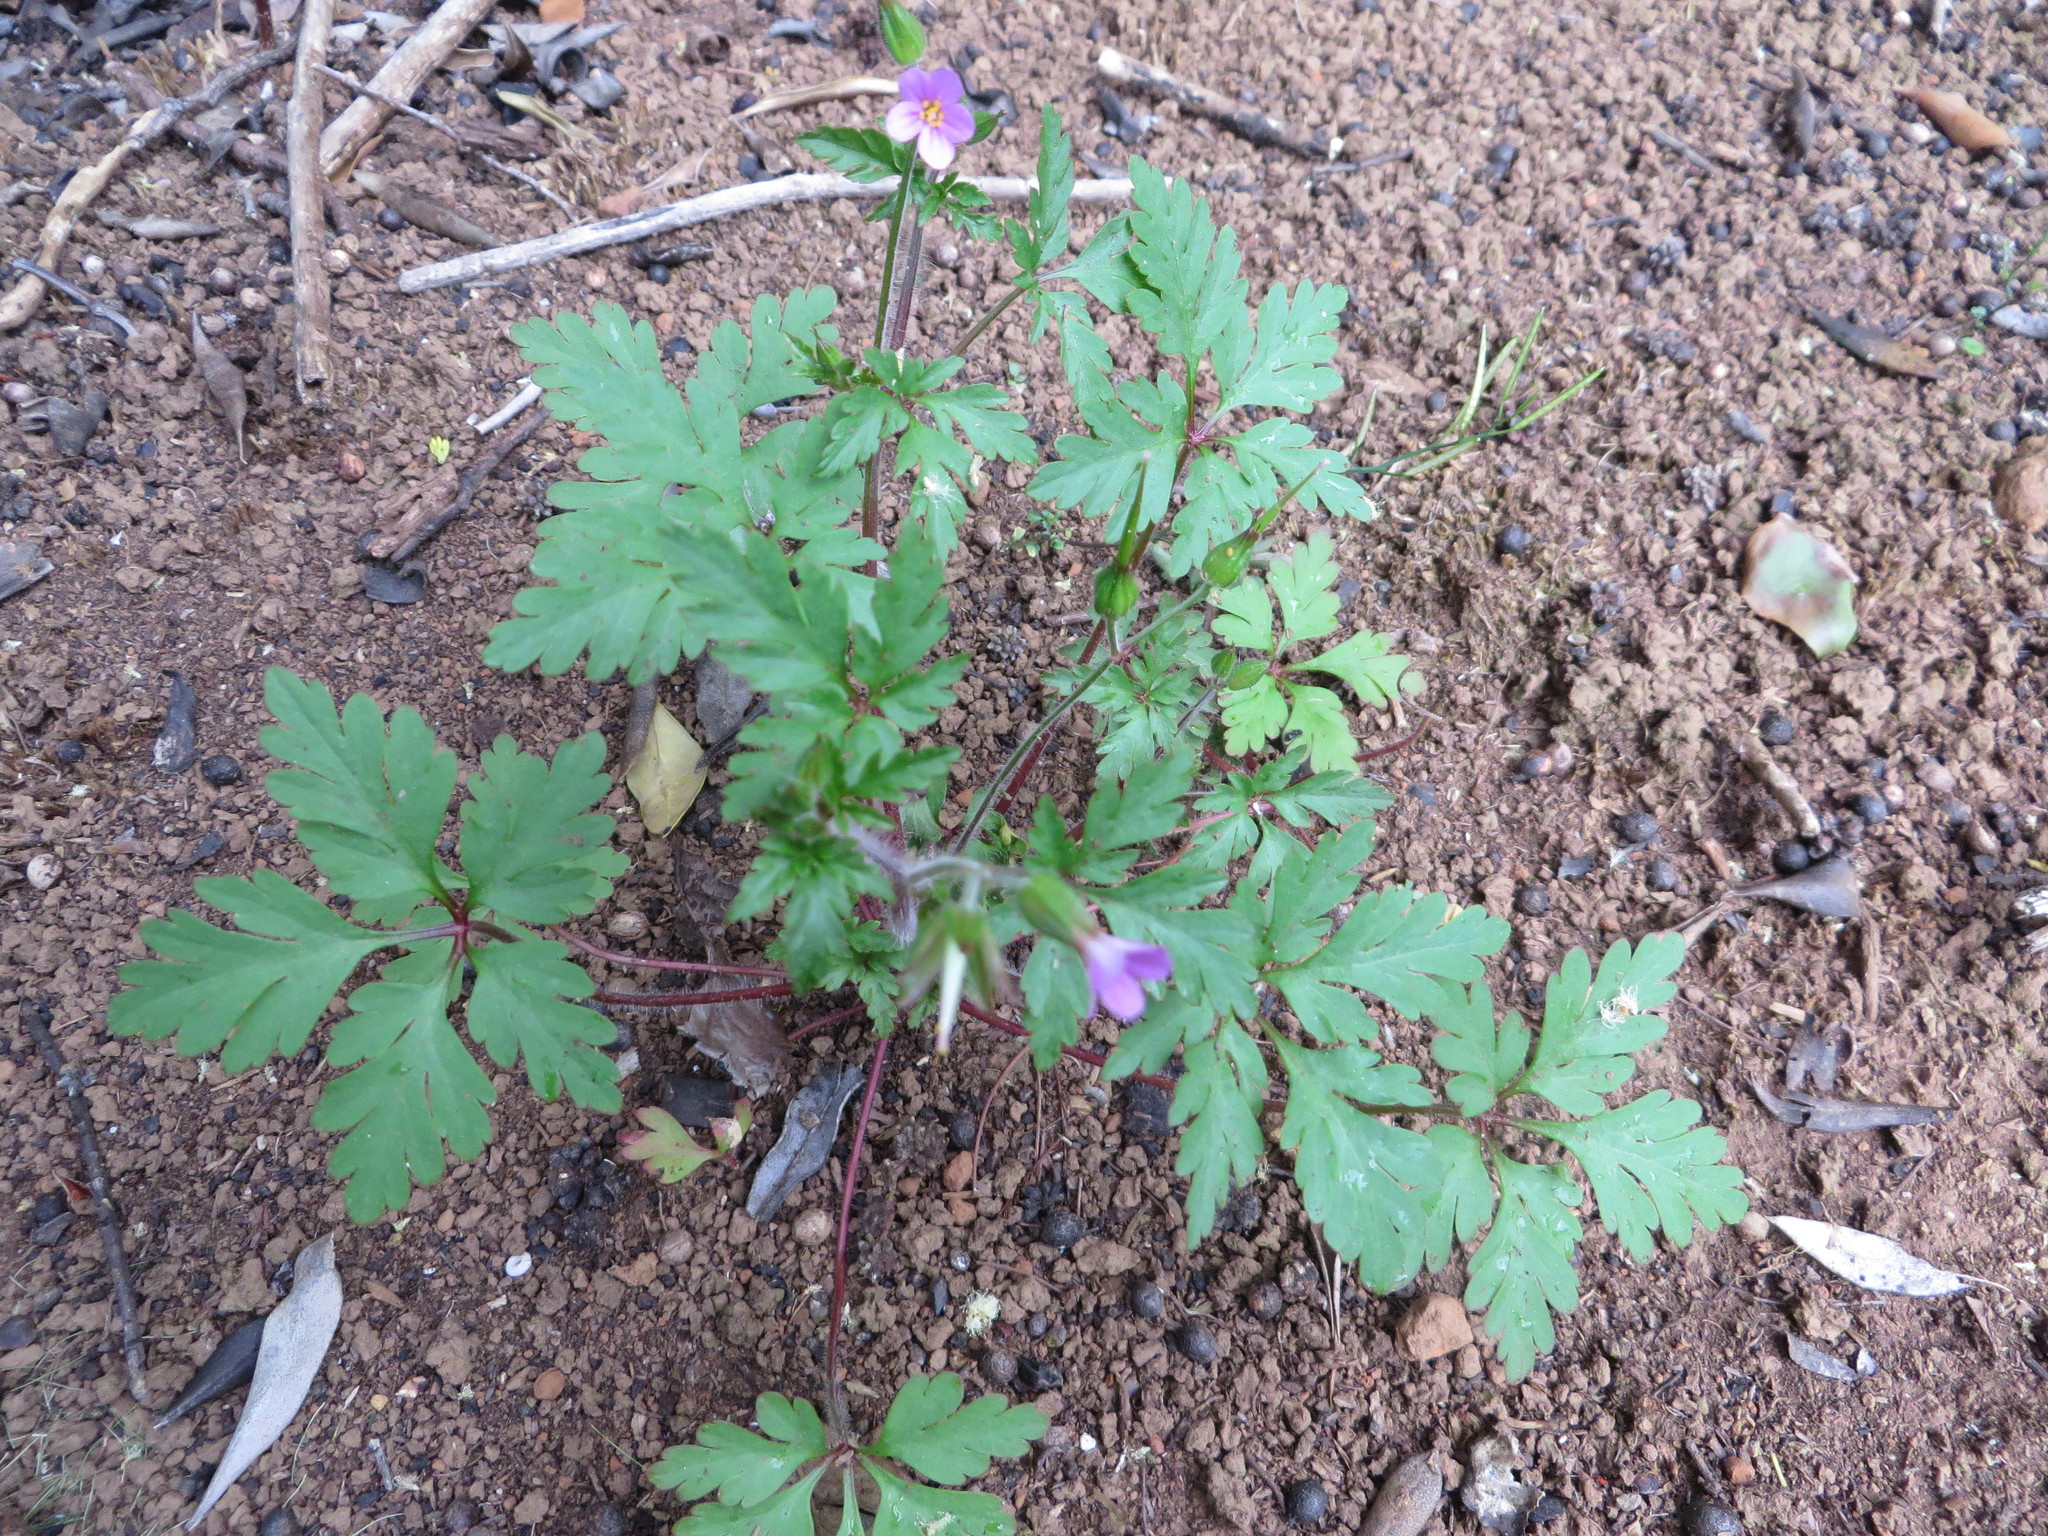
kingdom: Plantae
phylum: Tracheophyta
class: Magnoliopsida
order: Geraniales
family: Geraniaceae
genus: Geranium
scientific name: Geranium purpureum
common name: Little-robin
